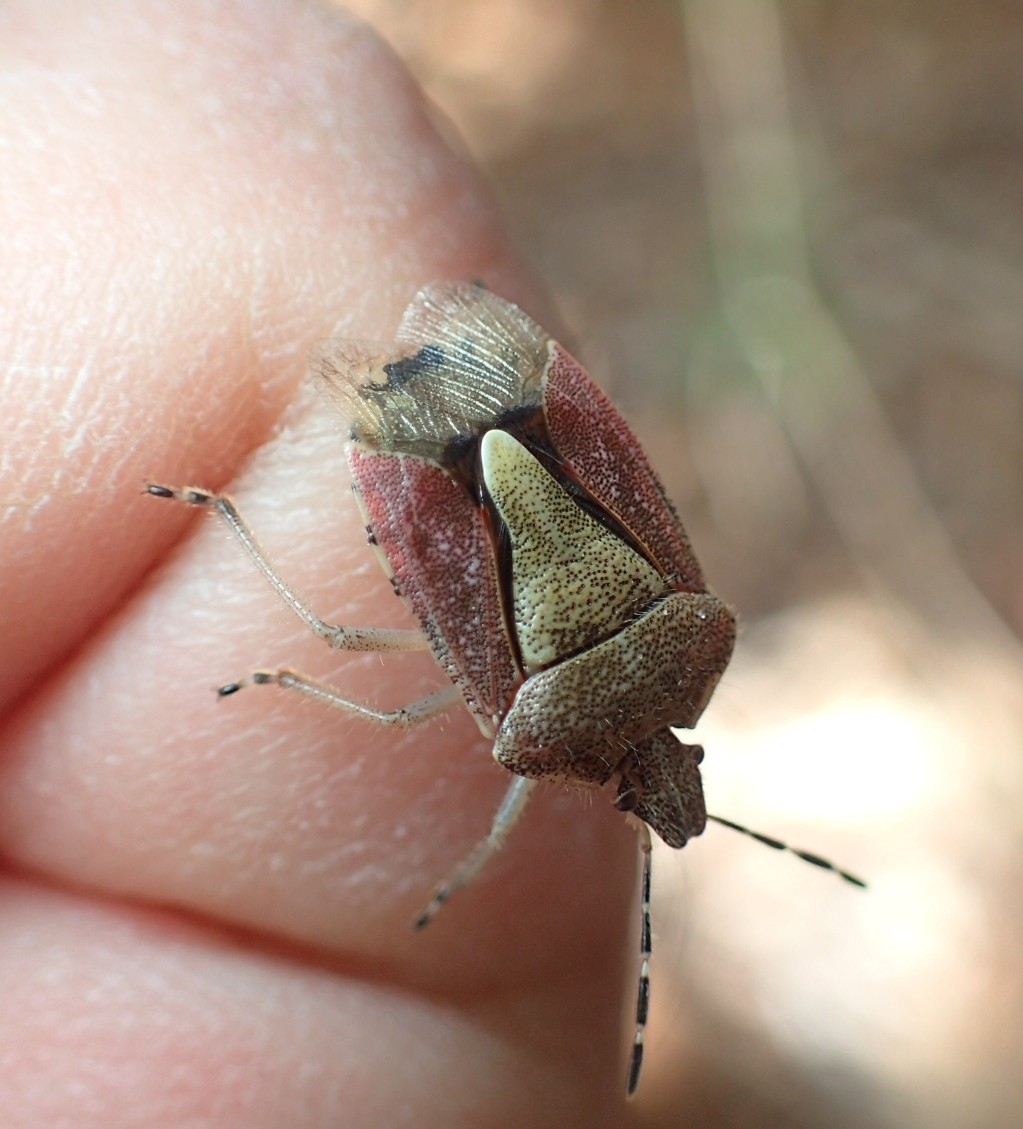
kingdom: Animalia
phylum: Arthropoda
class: Insecta
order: Hemiptera
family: Pentatomidae
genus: Dolycoris
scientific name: Dolycoris baccarum
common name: Sloe bug
